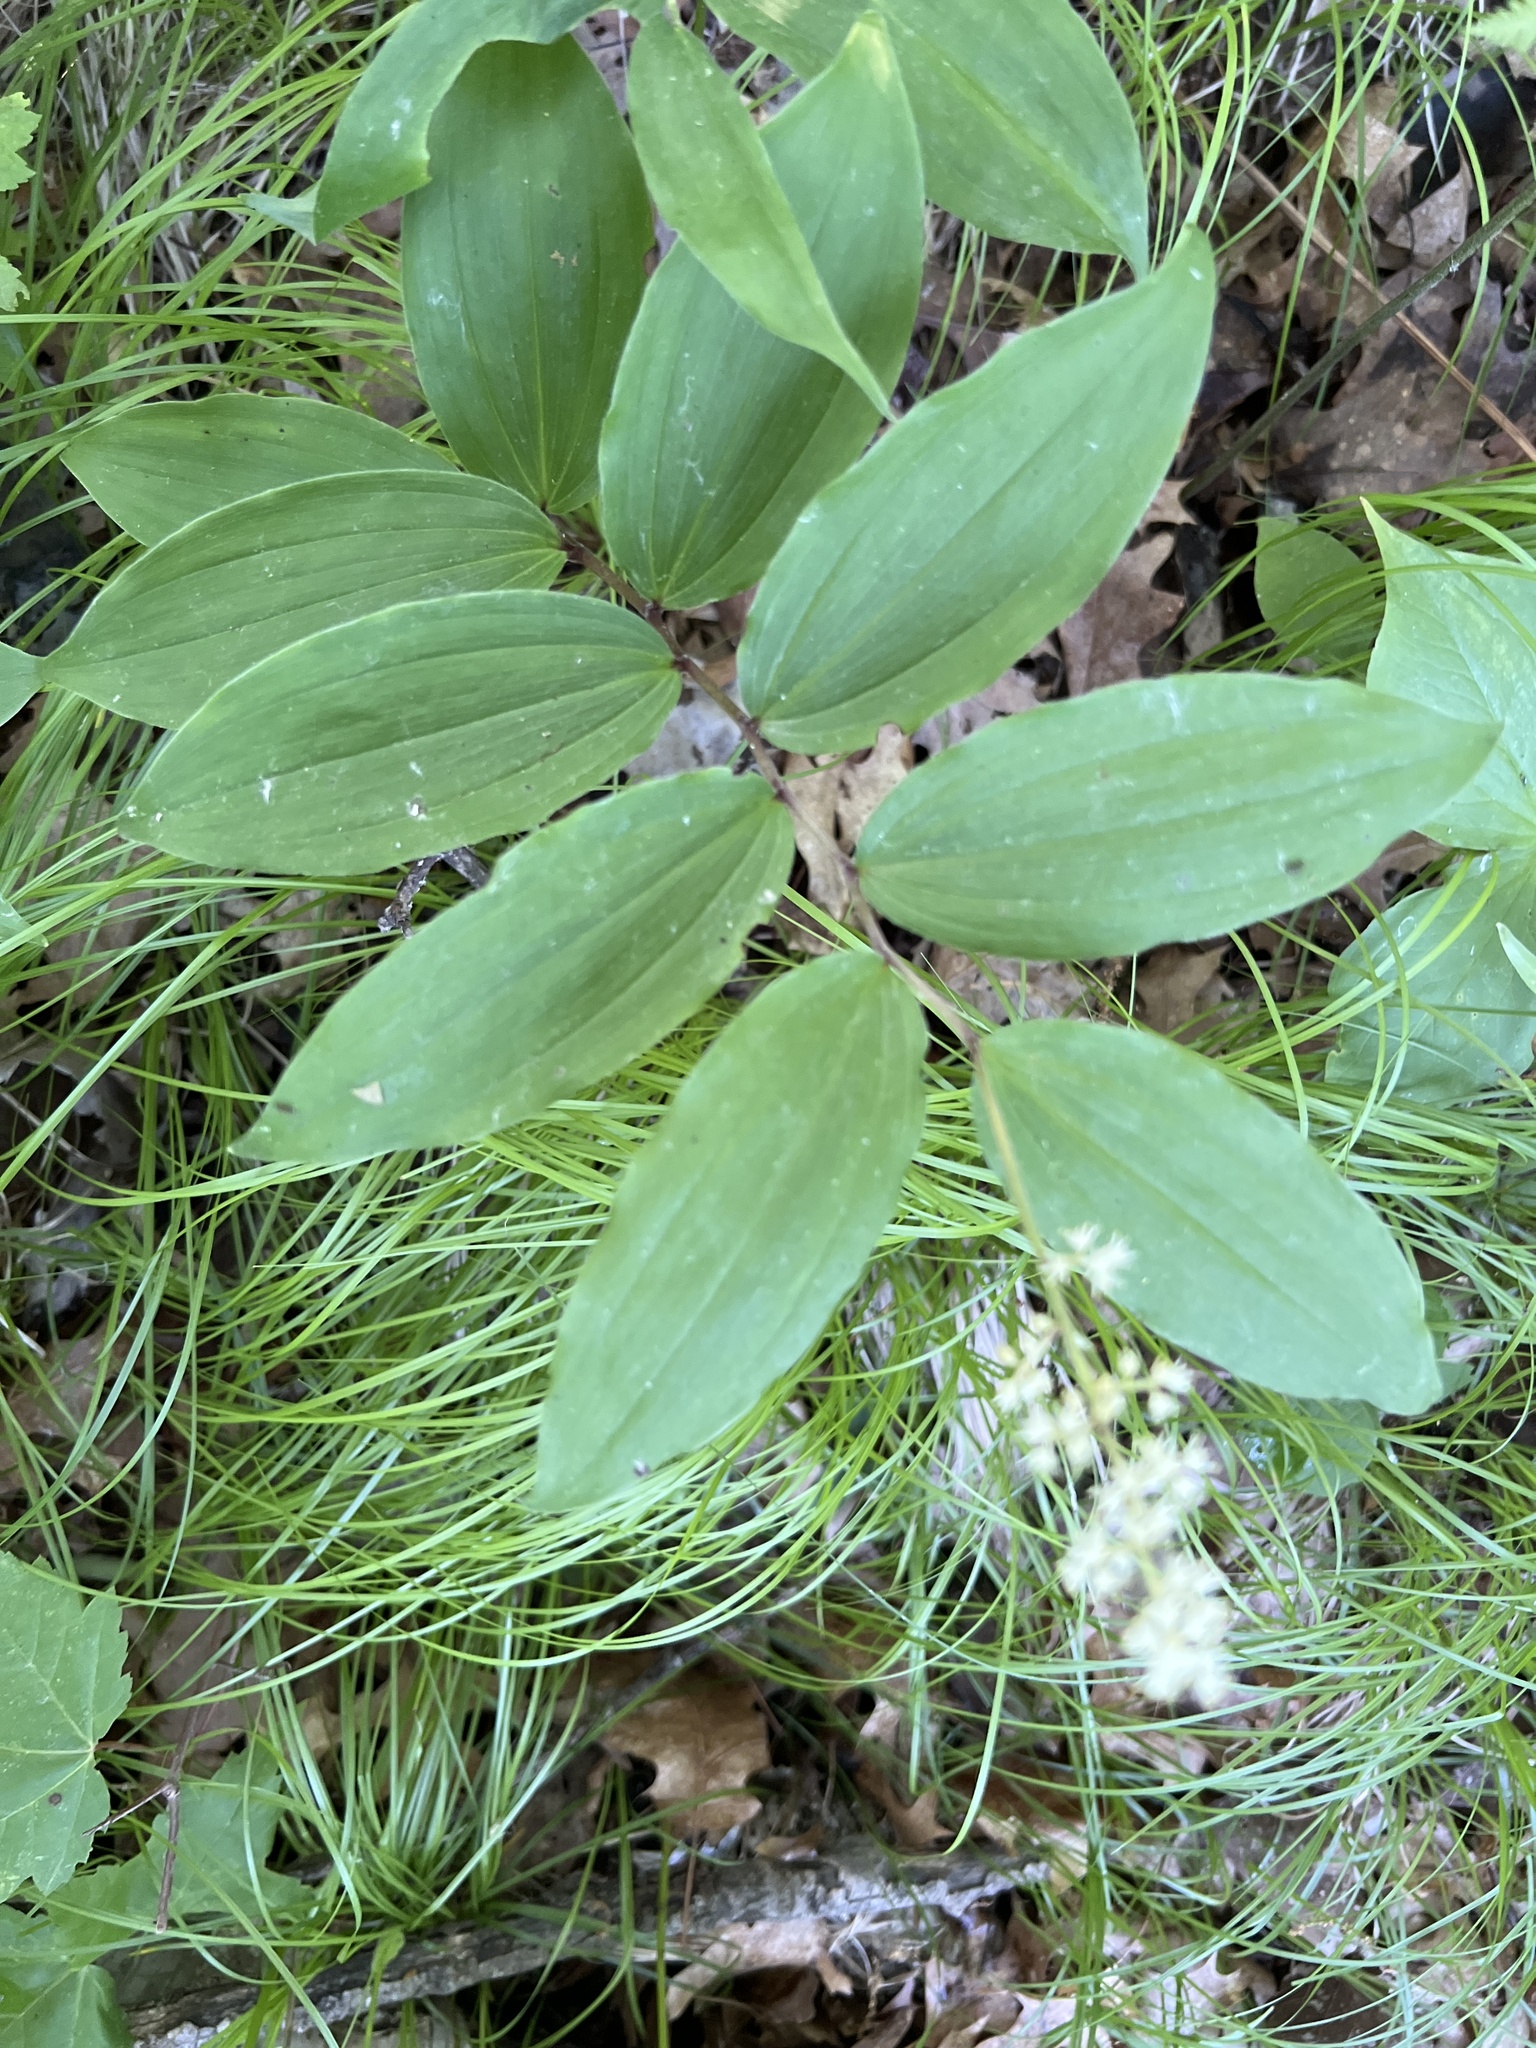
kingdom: Plantae
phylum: Tracheophyta
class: Liliopsida
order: Asparagales
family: Asparagaceae
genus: Maianthemum
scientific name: Maianthemum racemosum
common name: False spikenard
